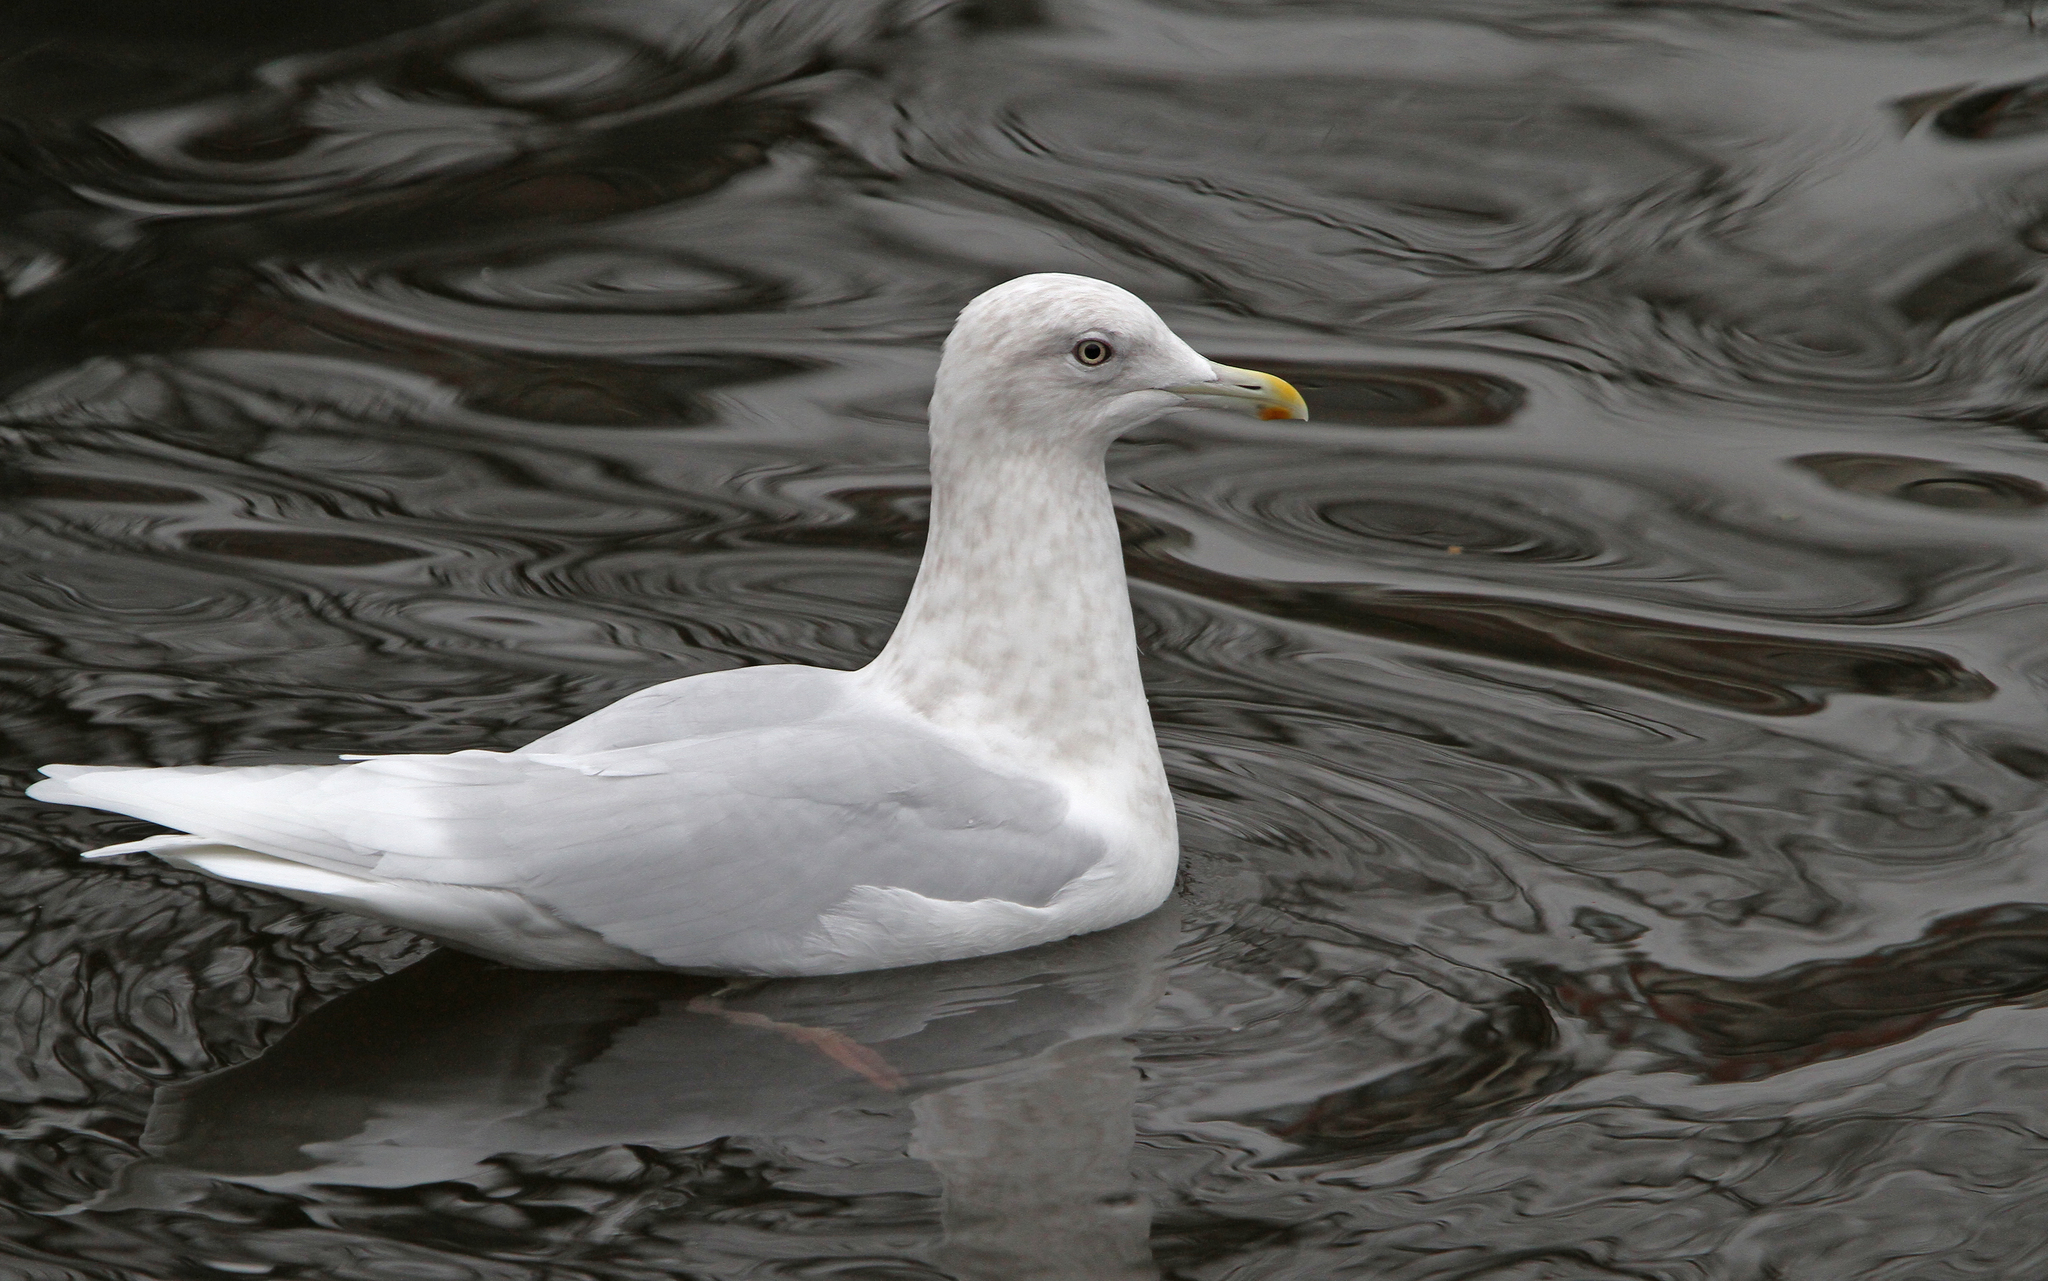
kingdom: Animalia
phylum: Chordata
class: Aves
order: Charadriiformes
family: Laridae
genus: Larus
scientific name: Larus glaucoides
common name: Iceland gull
